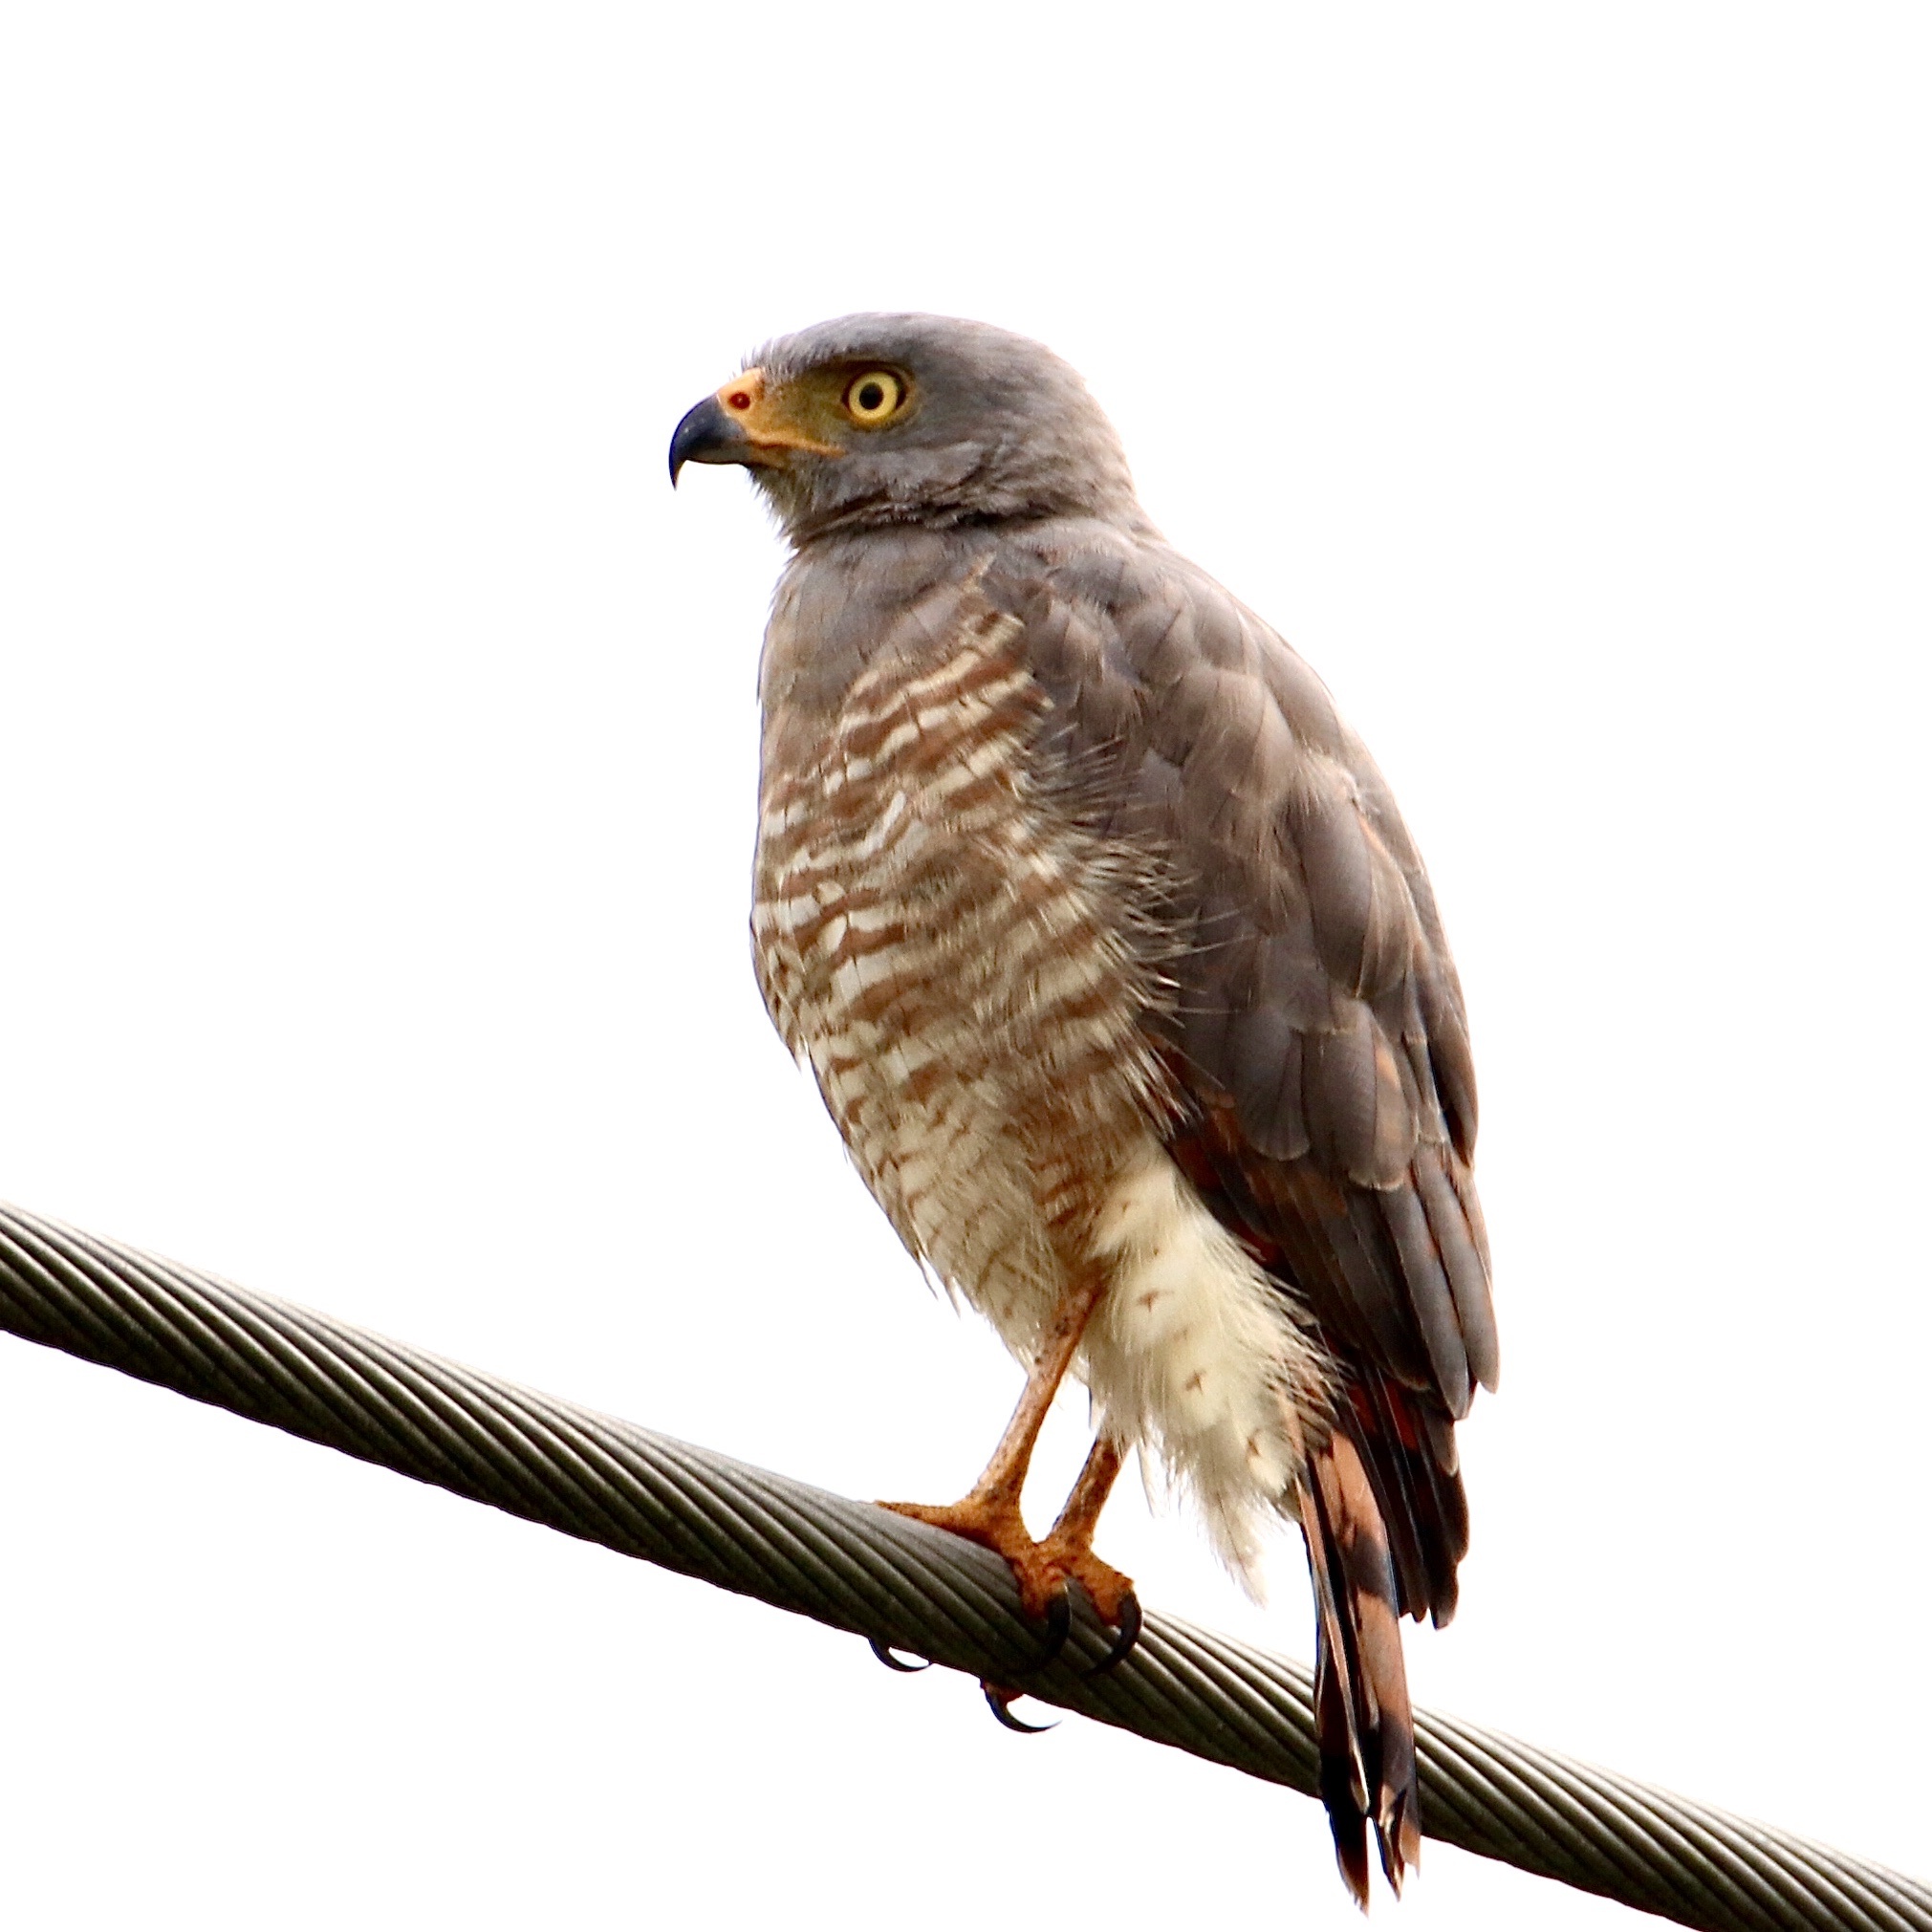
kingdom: Animalia
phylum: Chordata
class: Aves
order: Accipitriformes
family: Accipitridae
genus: Rupornis
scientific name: Rupornis magnirostris
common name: Roadside hawk
